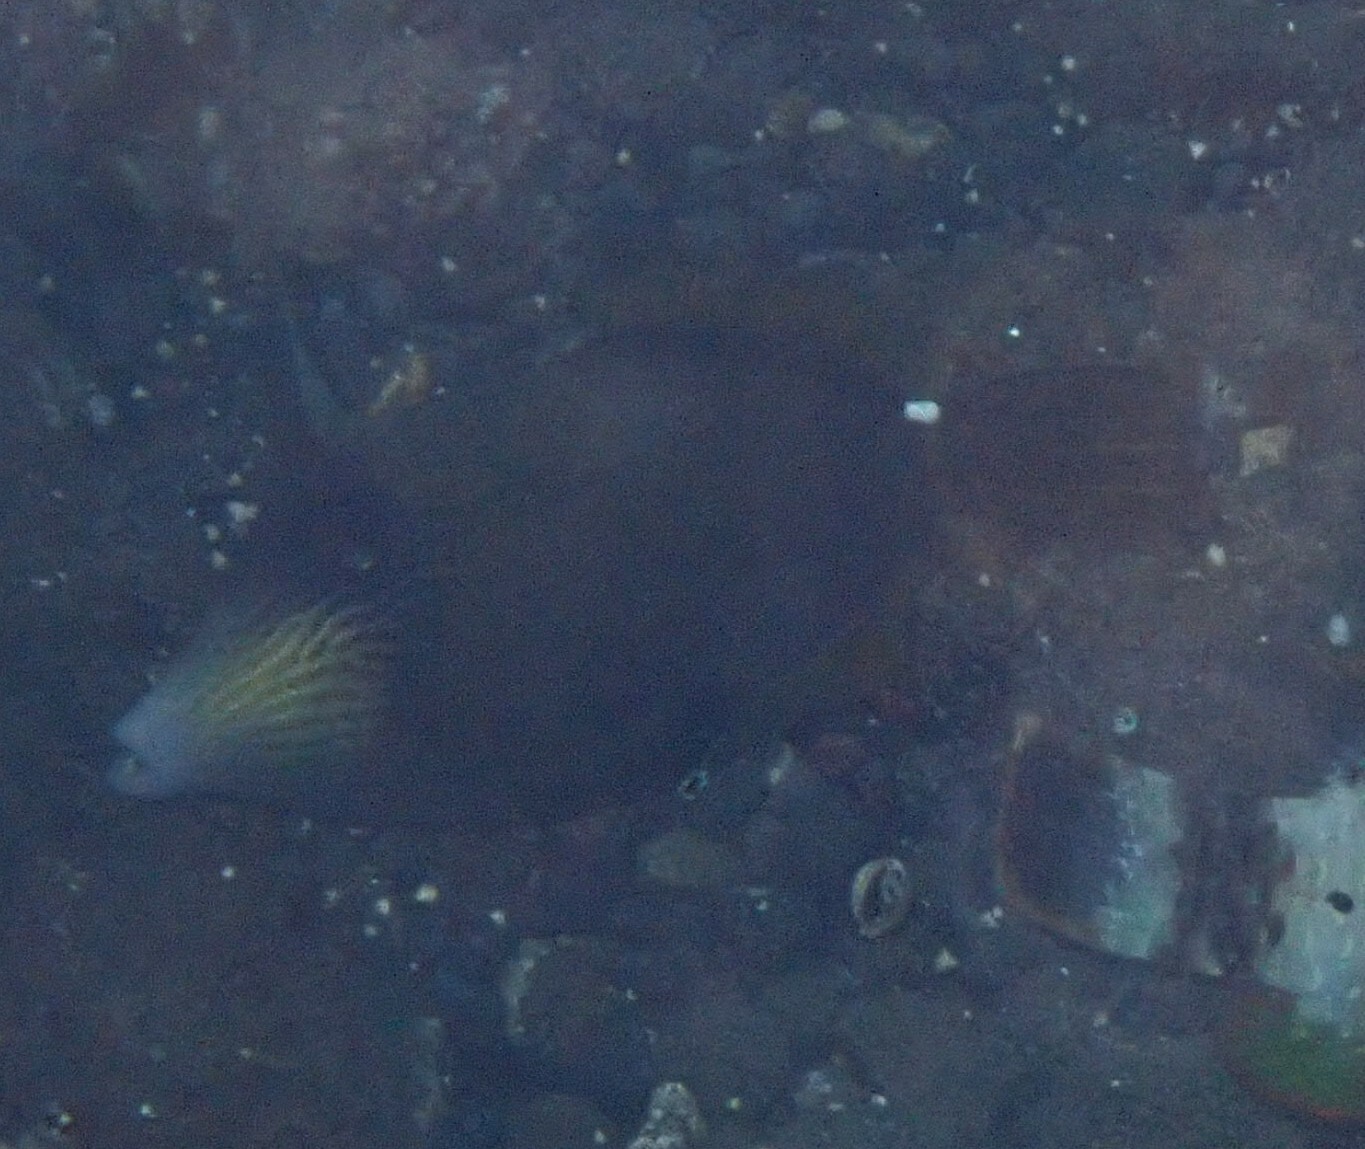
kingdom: Animalia
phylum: Chordata
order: Tetraodontiformes
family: Monacanthidae
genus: Cantherhines
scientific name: Cantherhines pardalis
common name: Honeycomb filefish
